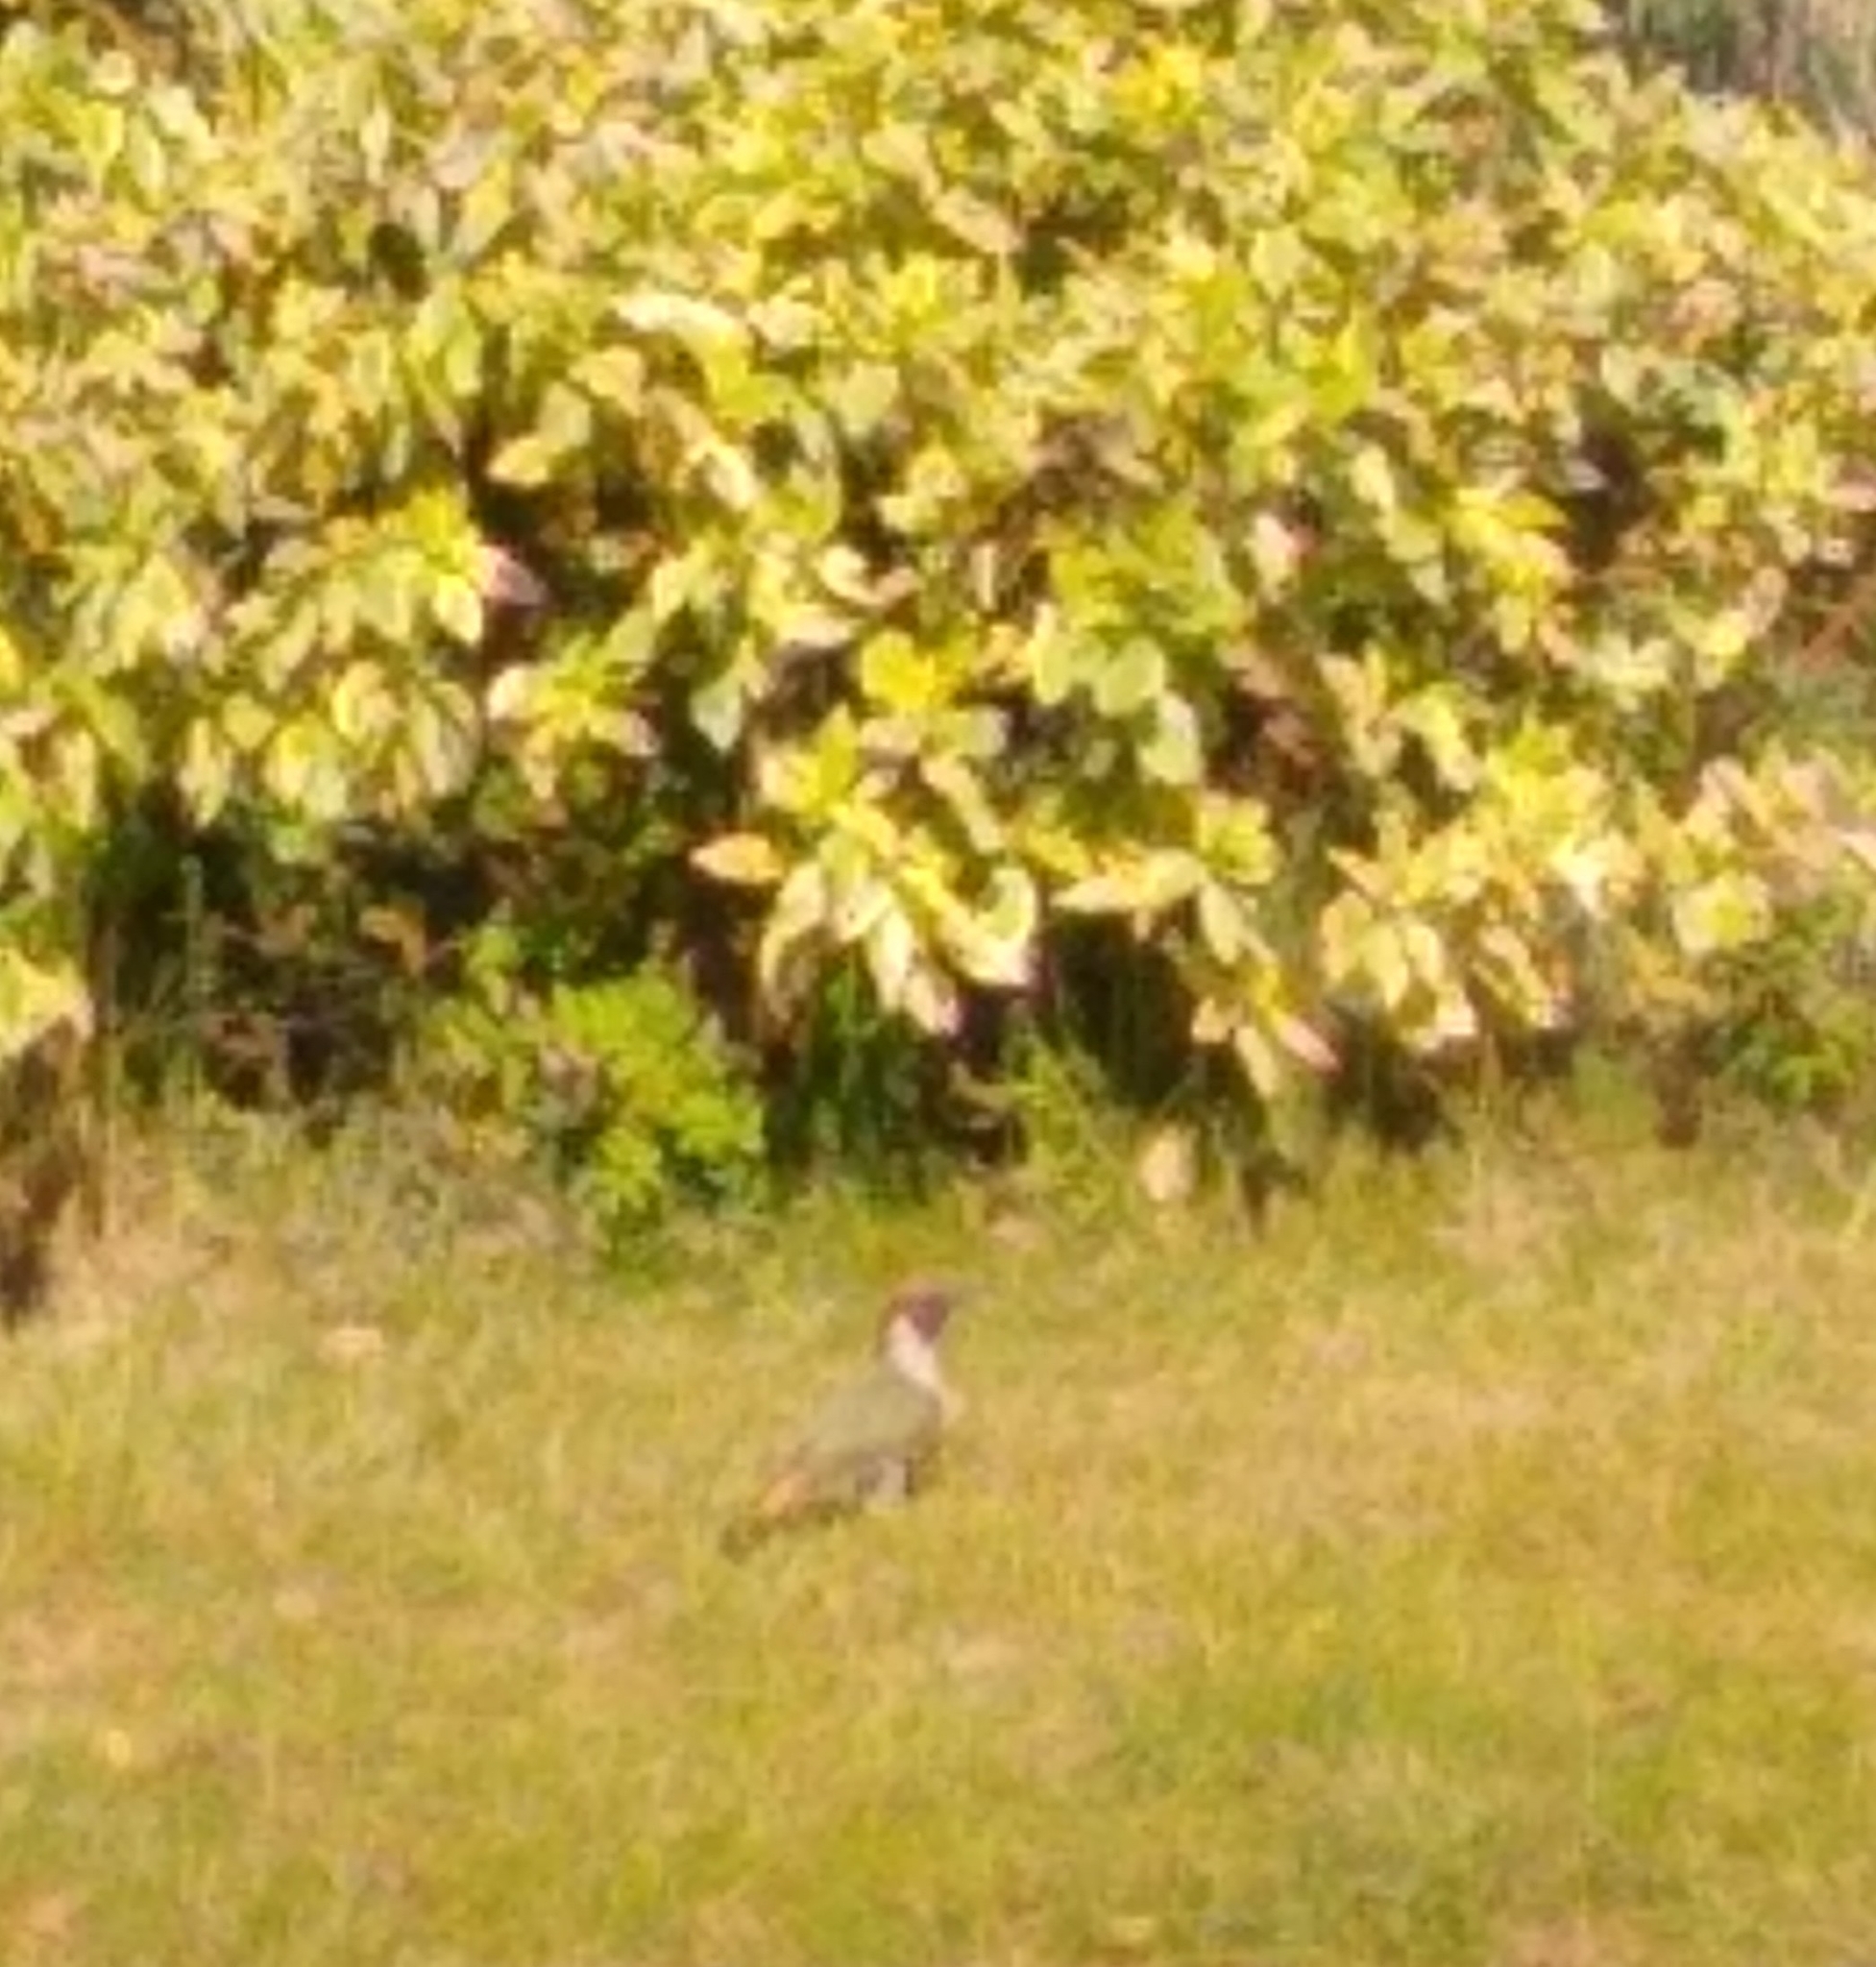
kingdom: Animalia
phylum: Chordata
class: Aves
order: Piciformes
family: Picidae
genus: Picus
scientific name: Picus viridis
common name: European green woodpecker
